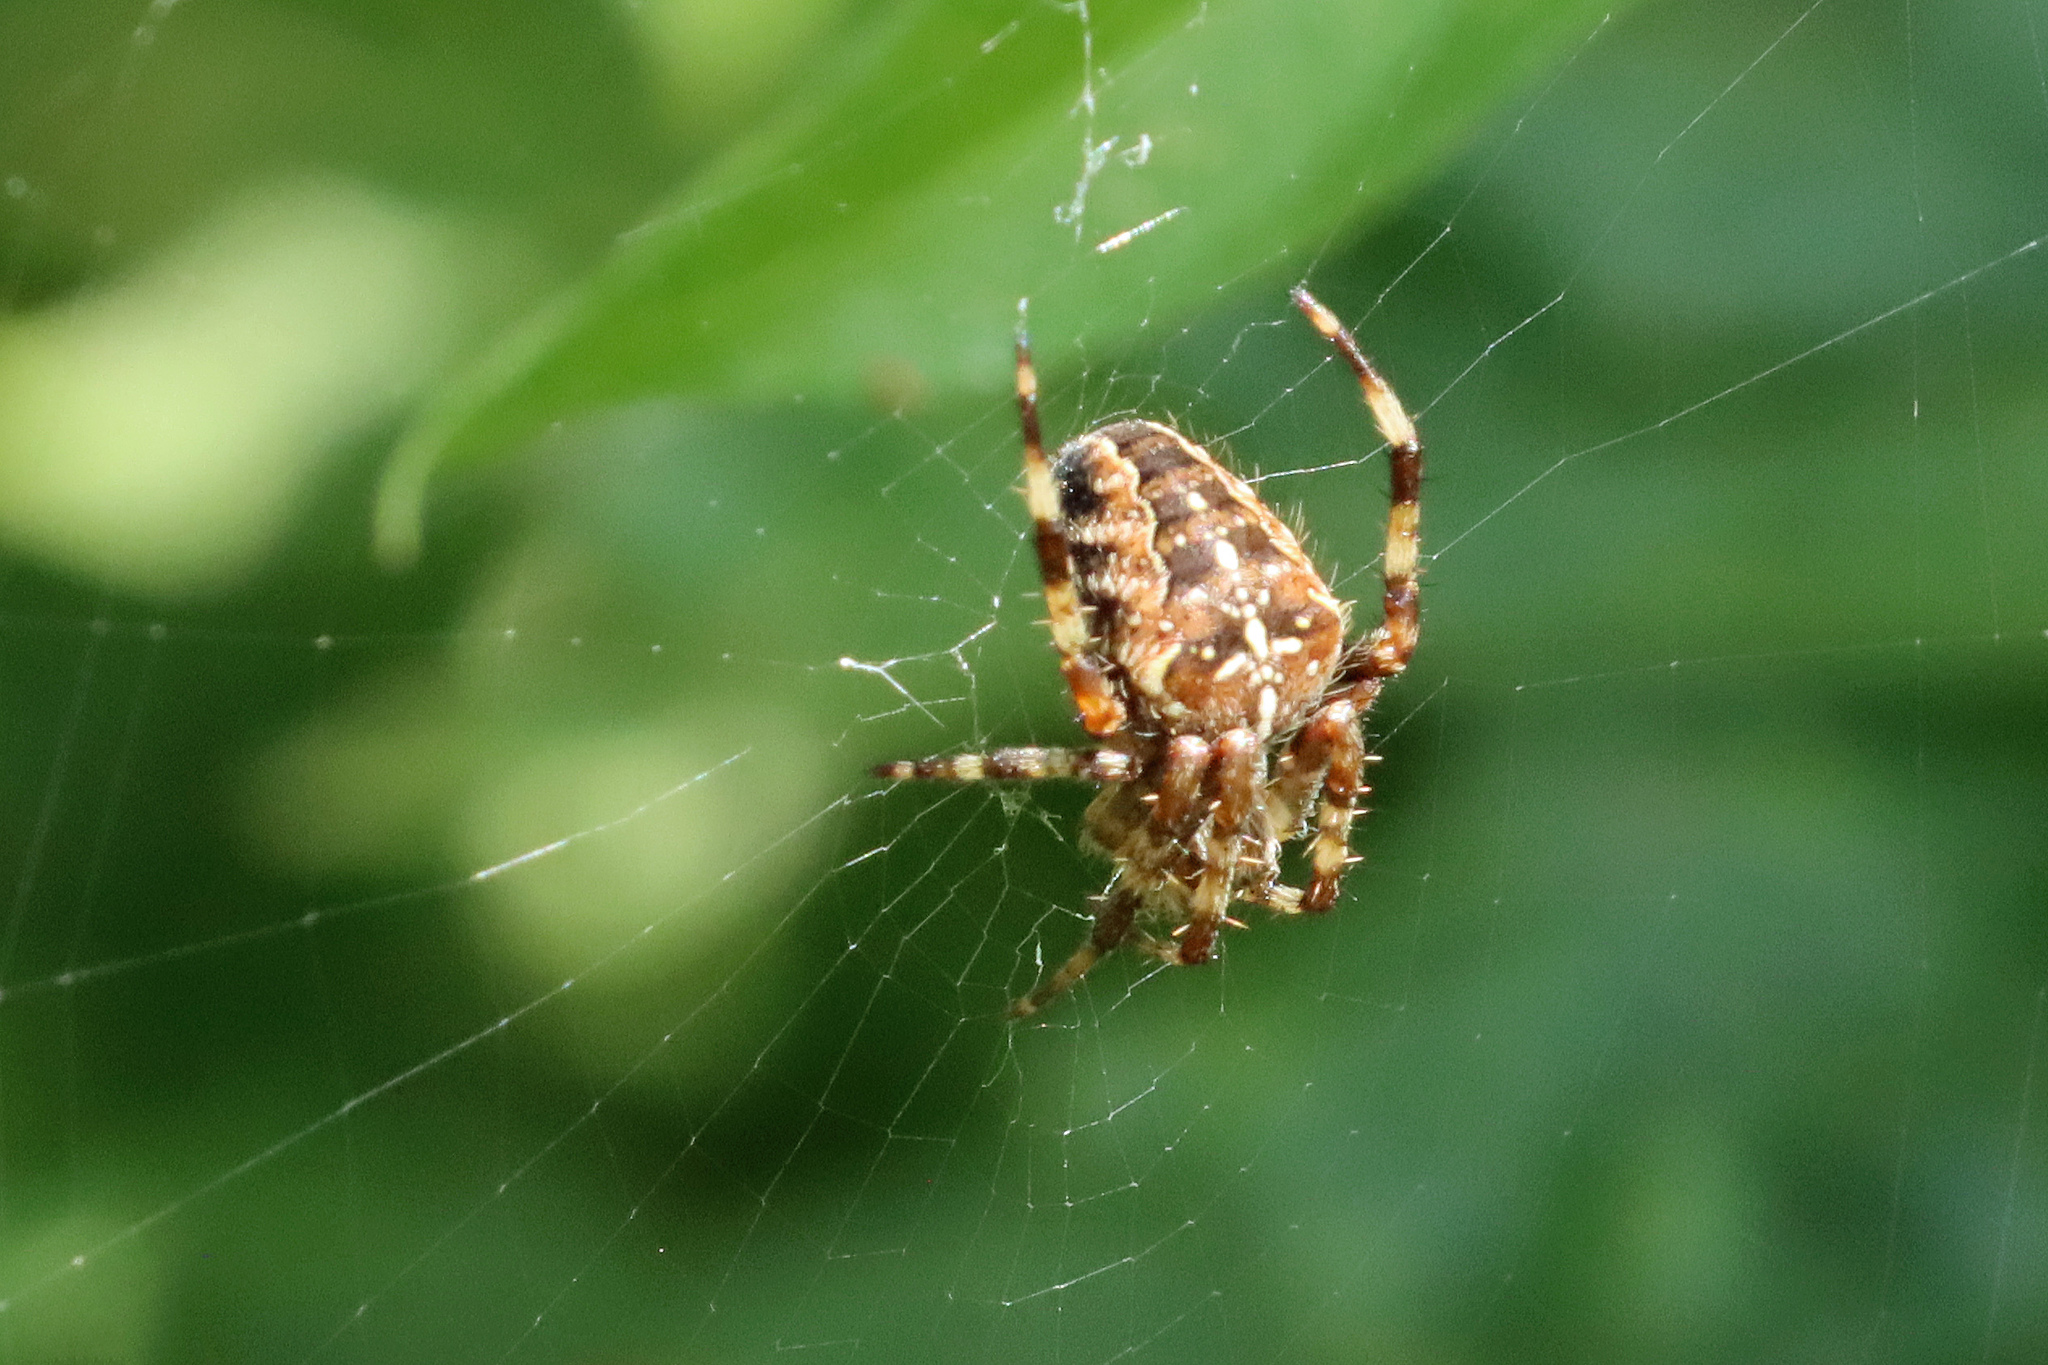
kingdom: Animalia
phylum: Arthropoda
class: Arachnida
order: Araneae
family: Araneidae
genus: Araneus
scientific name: Araneus diadematus
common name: Cross orbweaver
